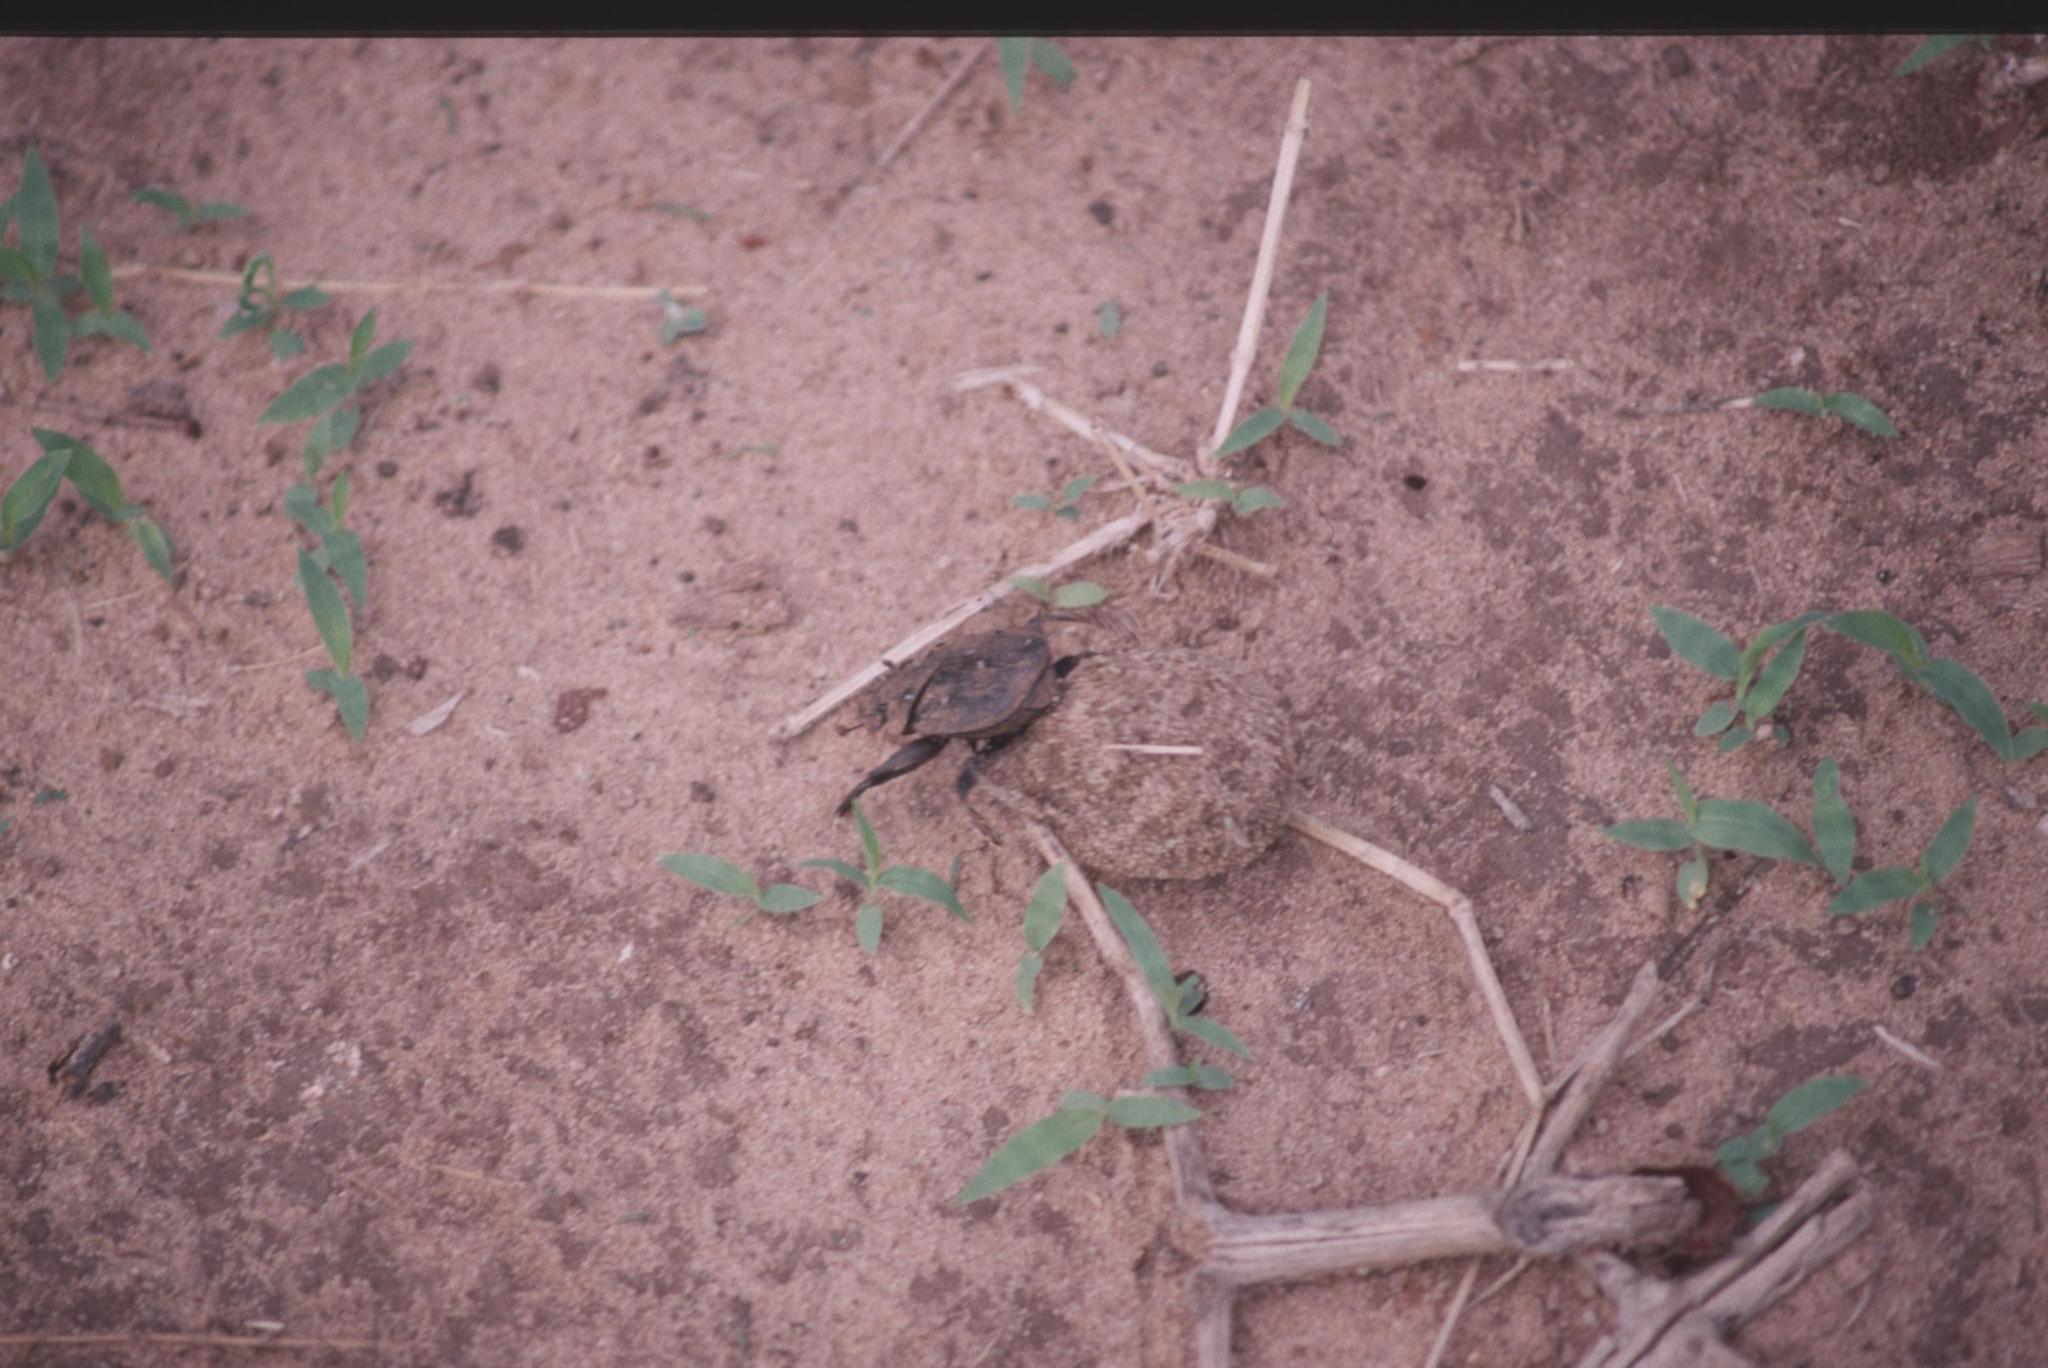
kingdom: Animalia
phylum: Arthropoda
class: Insecta
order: Coleoptera
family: Scarabaeidae
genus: Pachylomera
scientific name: Pachylomera femoralis
